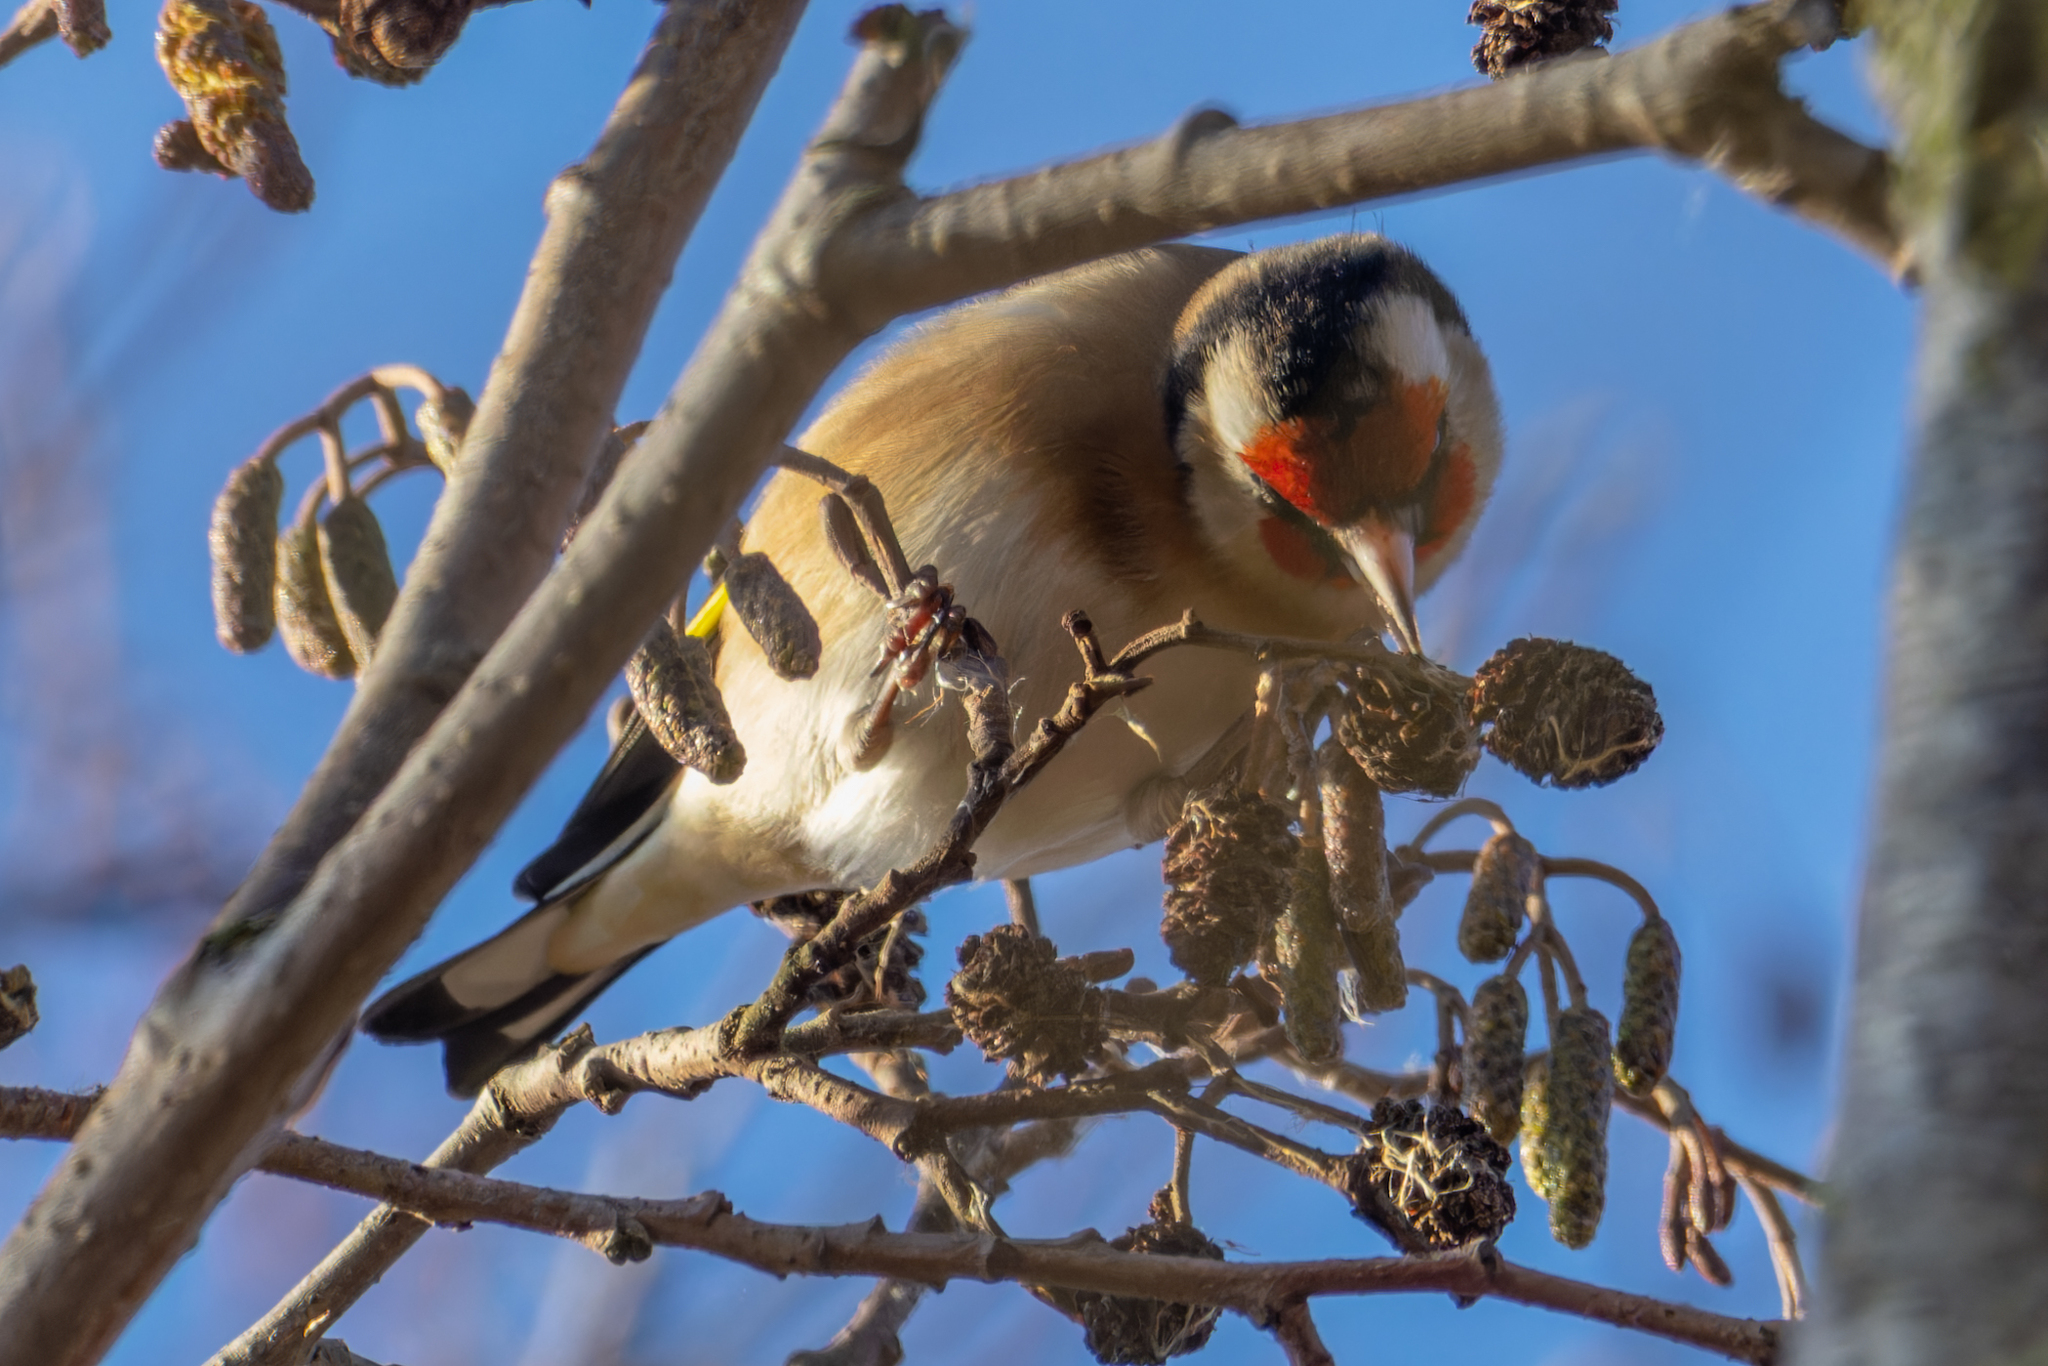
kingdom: Animalia
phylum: Chordata
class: Aves
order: Passeriformes
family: Fringillidae
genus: Carduelis
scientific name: Carduelis carduelis
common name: European goldfinch
